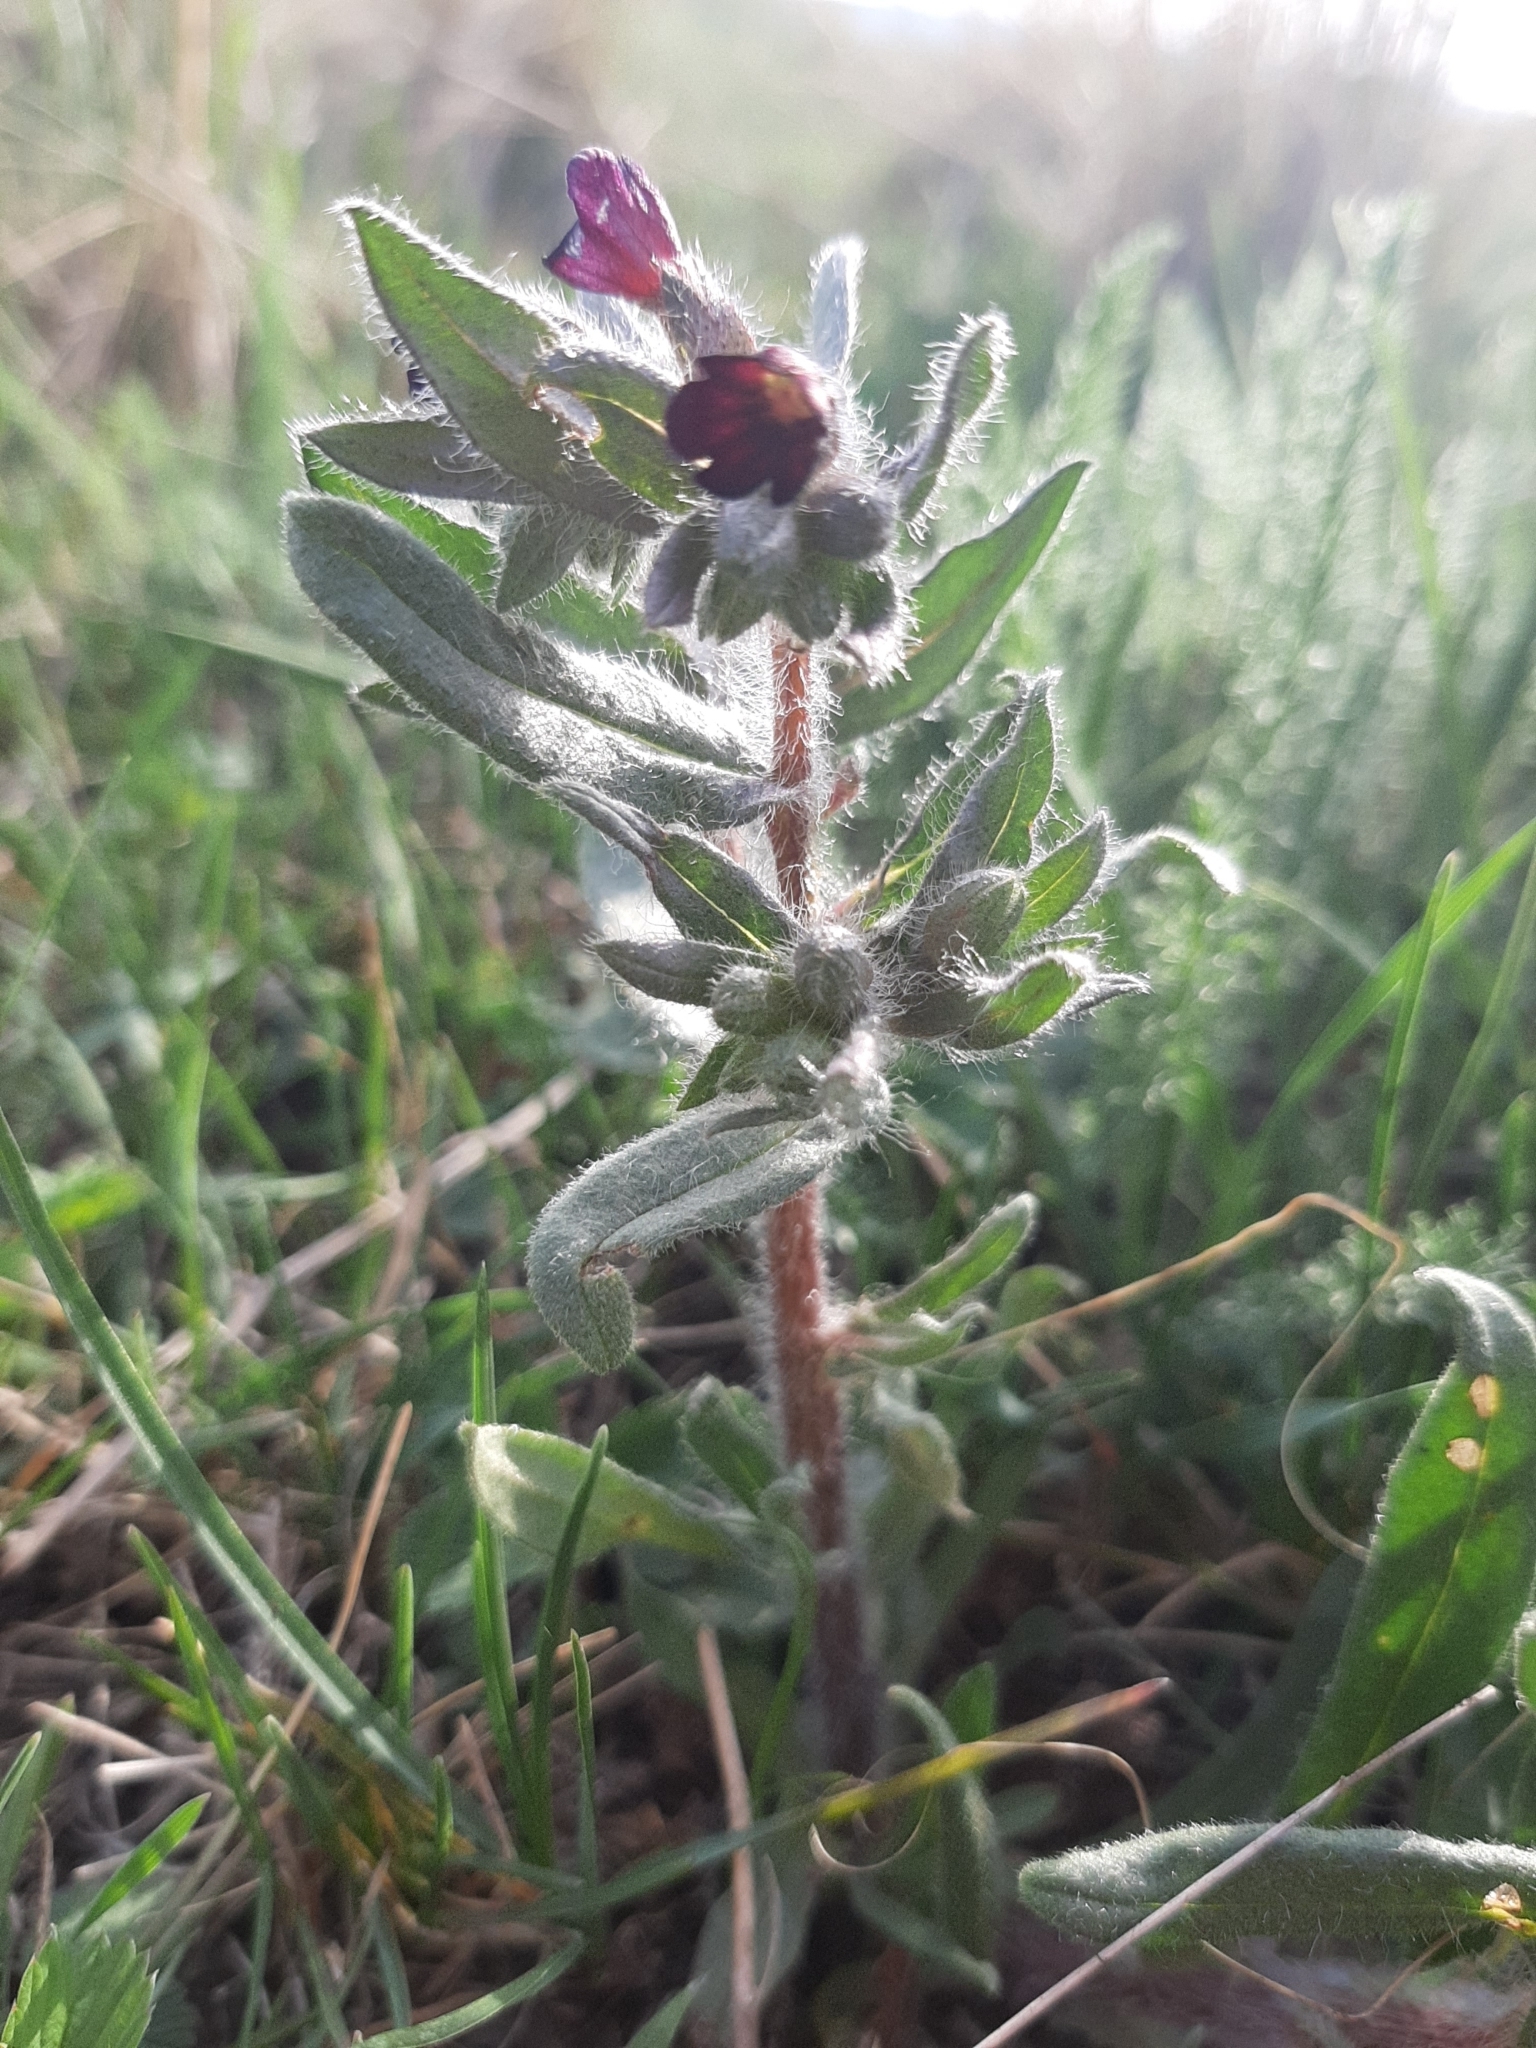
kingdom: Plantae
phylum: Tracheophyta
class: Magnoliopsida
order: Boraginales
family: Boraginaceae
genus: Nonea
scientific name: Nonea pulla
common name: Brown nonea
